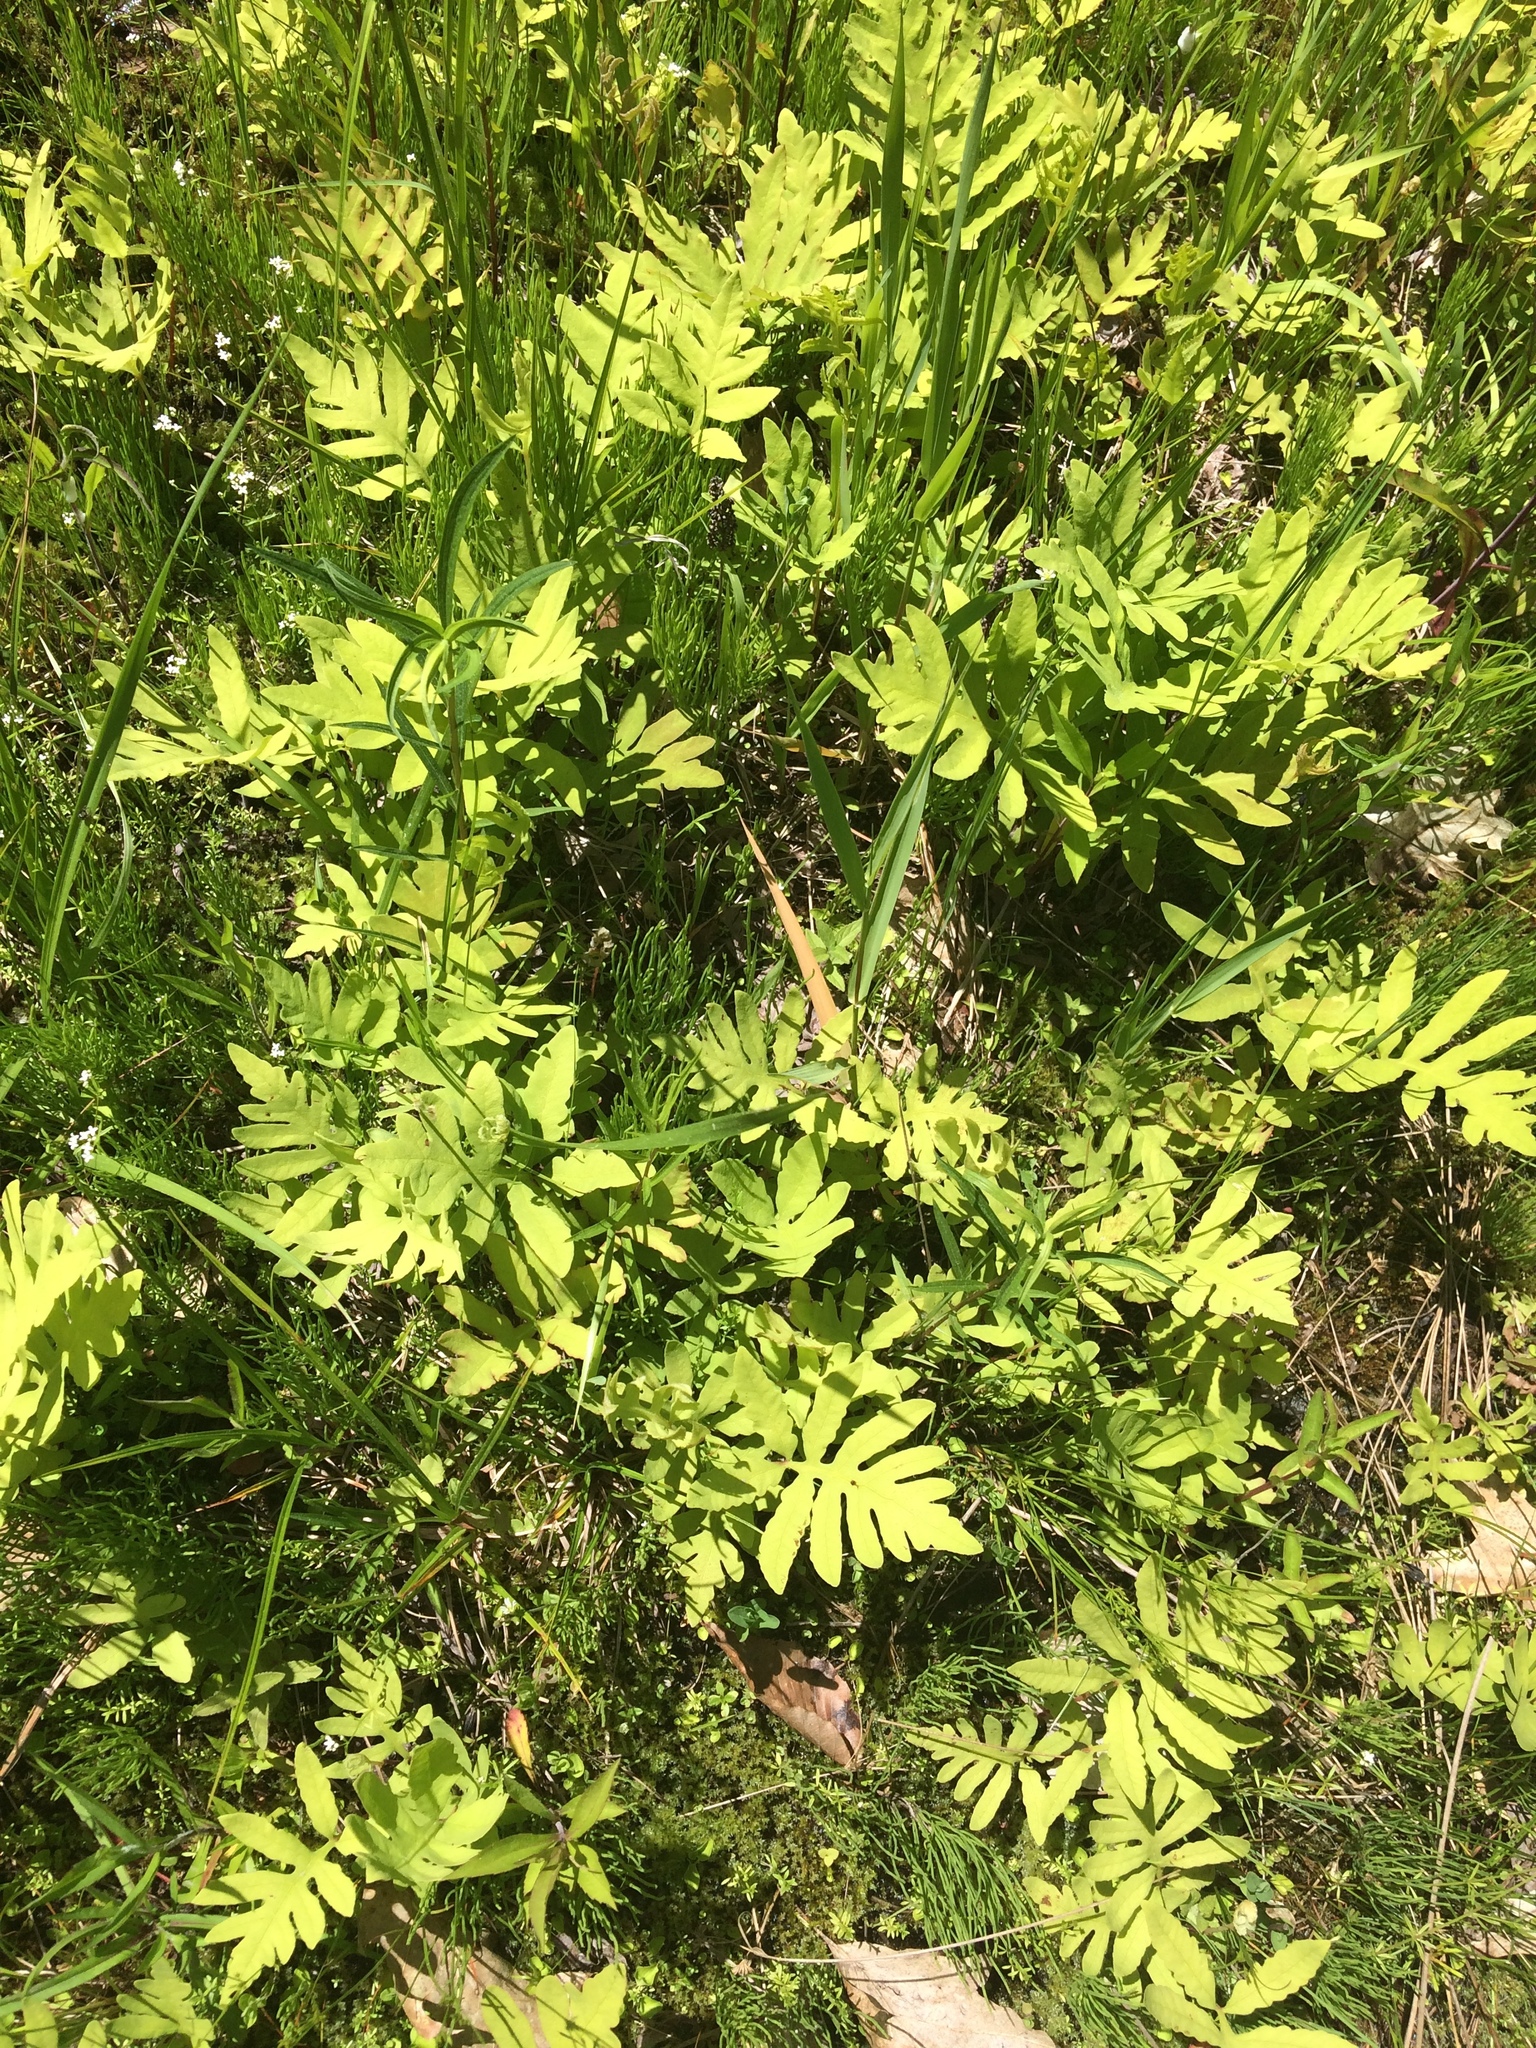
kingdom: Plantae
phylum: Tracheophyta
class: Polypodiopsida
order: Polypodiales
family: Onocleaceae
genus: Onoclea
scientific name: Onoclea sensibilis
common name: Sensitive fern
